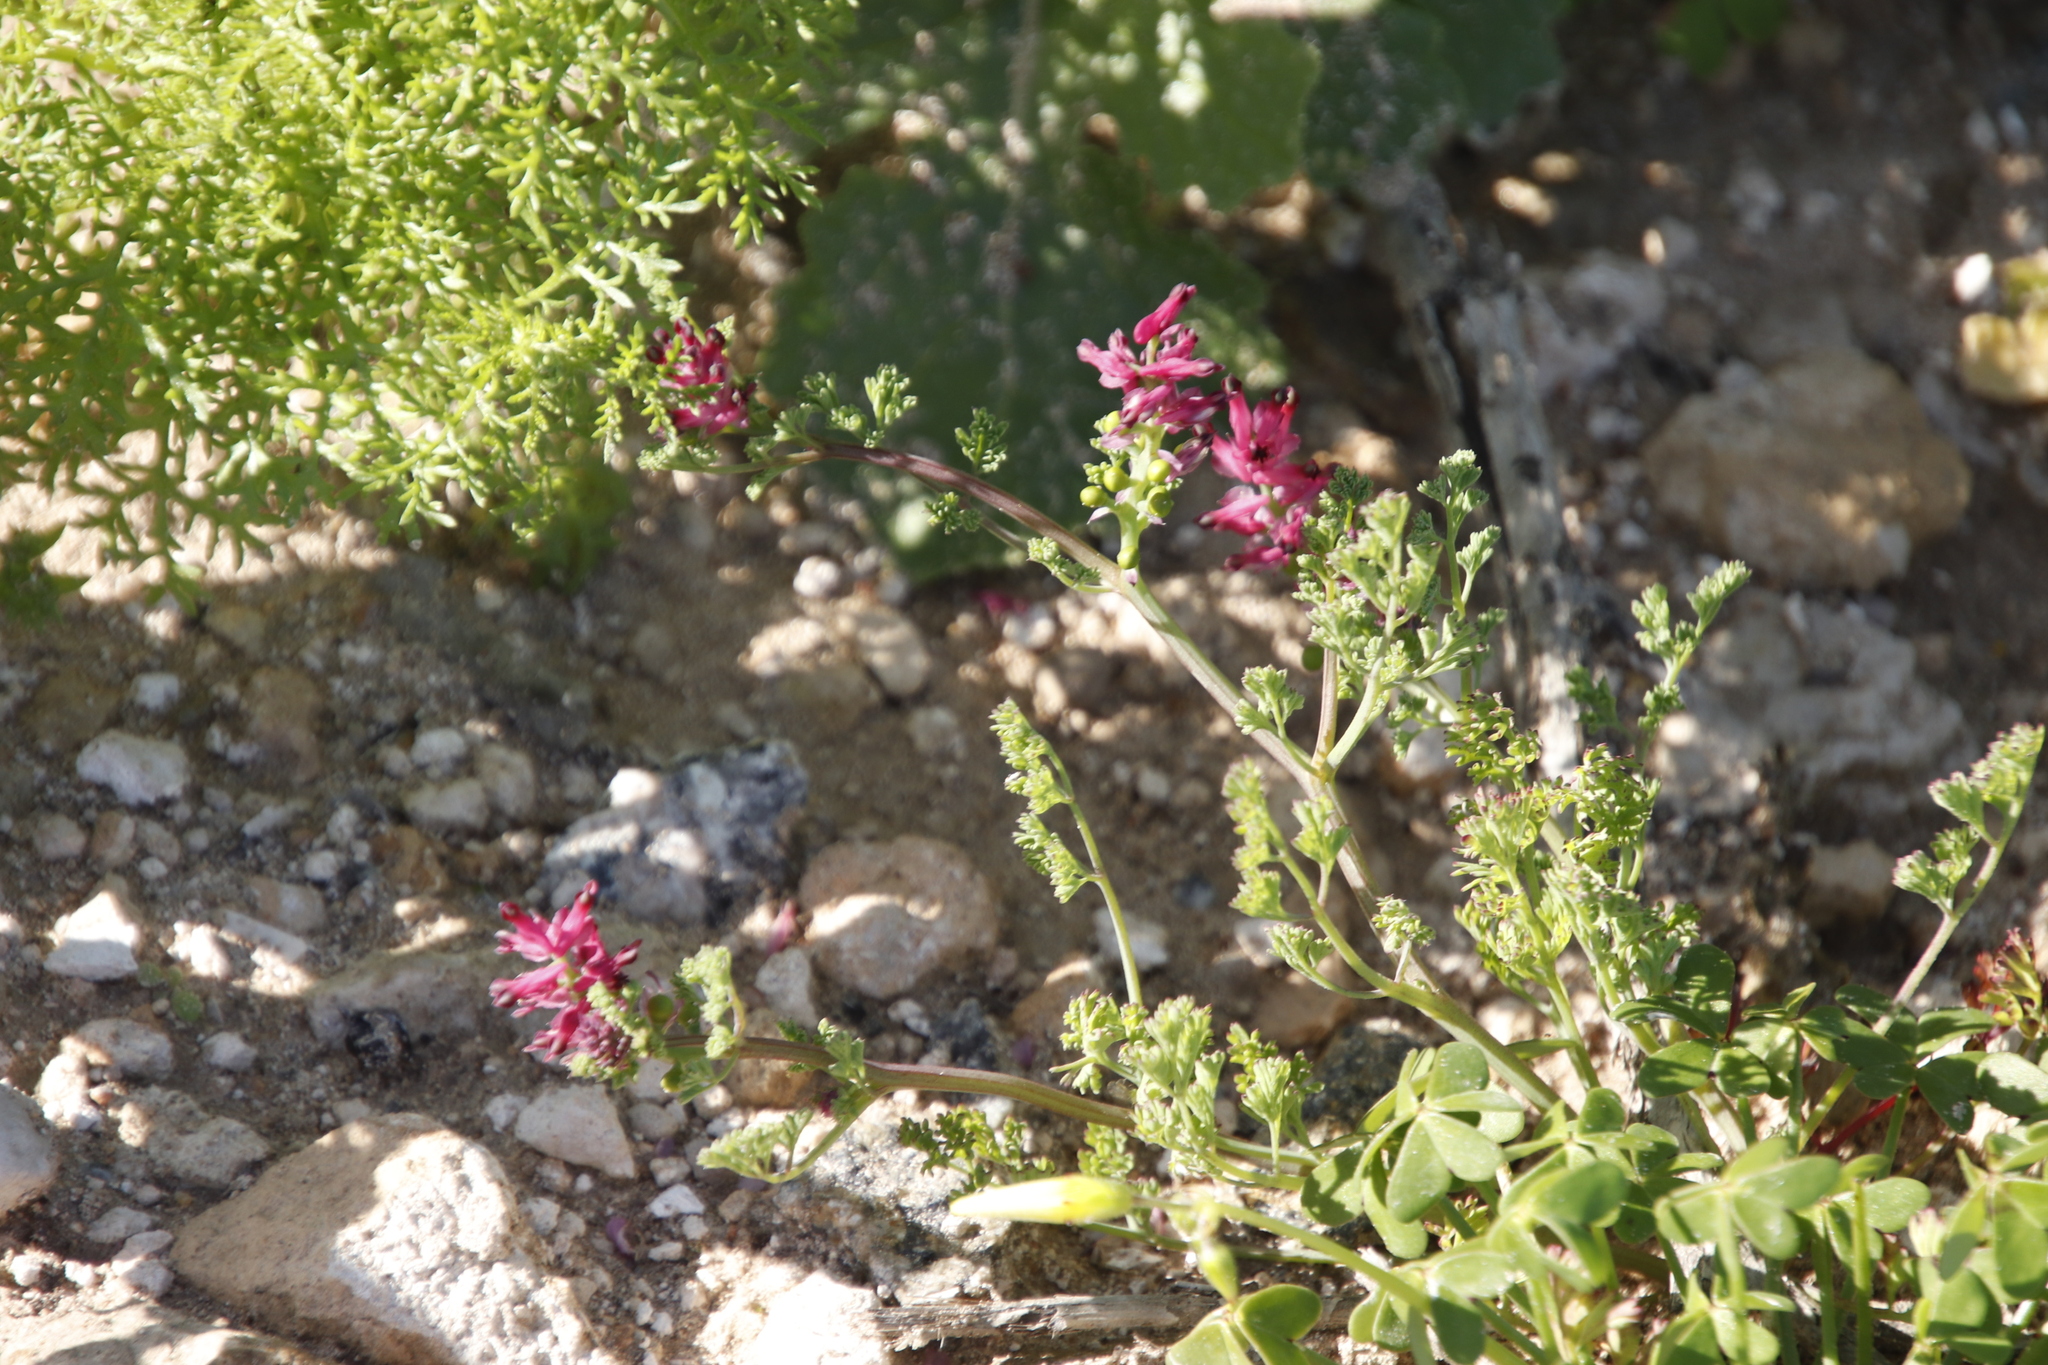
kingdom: Plantae
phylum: Tracheophyta
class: Magnoliopsida
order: Ranunculales
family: Papaveraceae
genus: Fumaria
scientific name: Fumaria densiflora
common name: Dense-flowered fumitory
